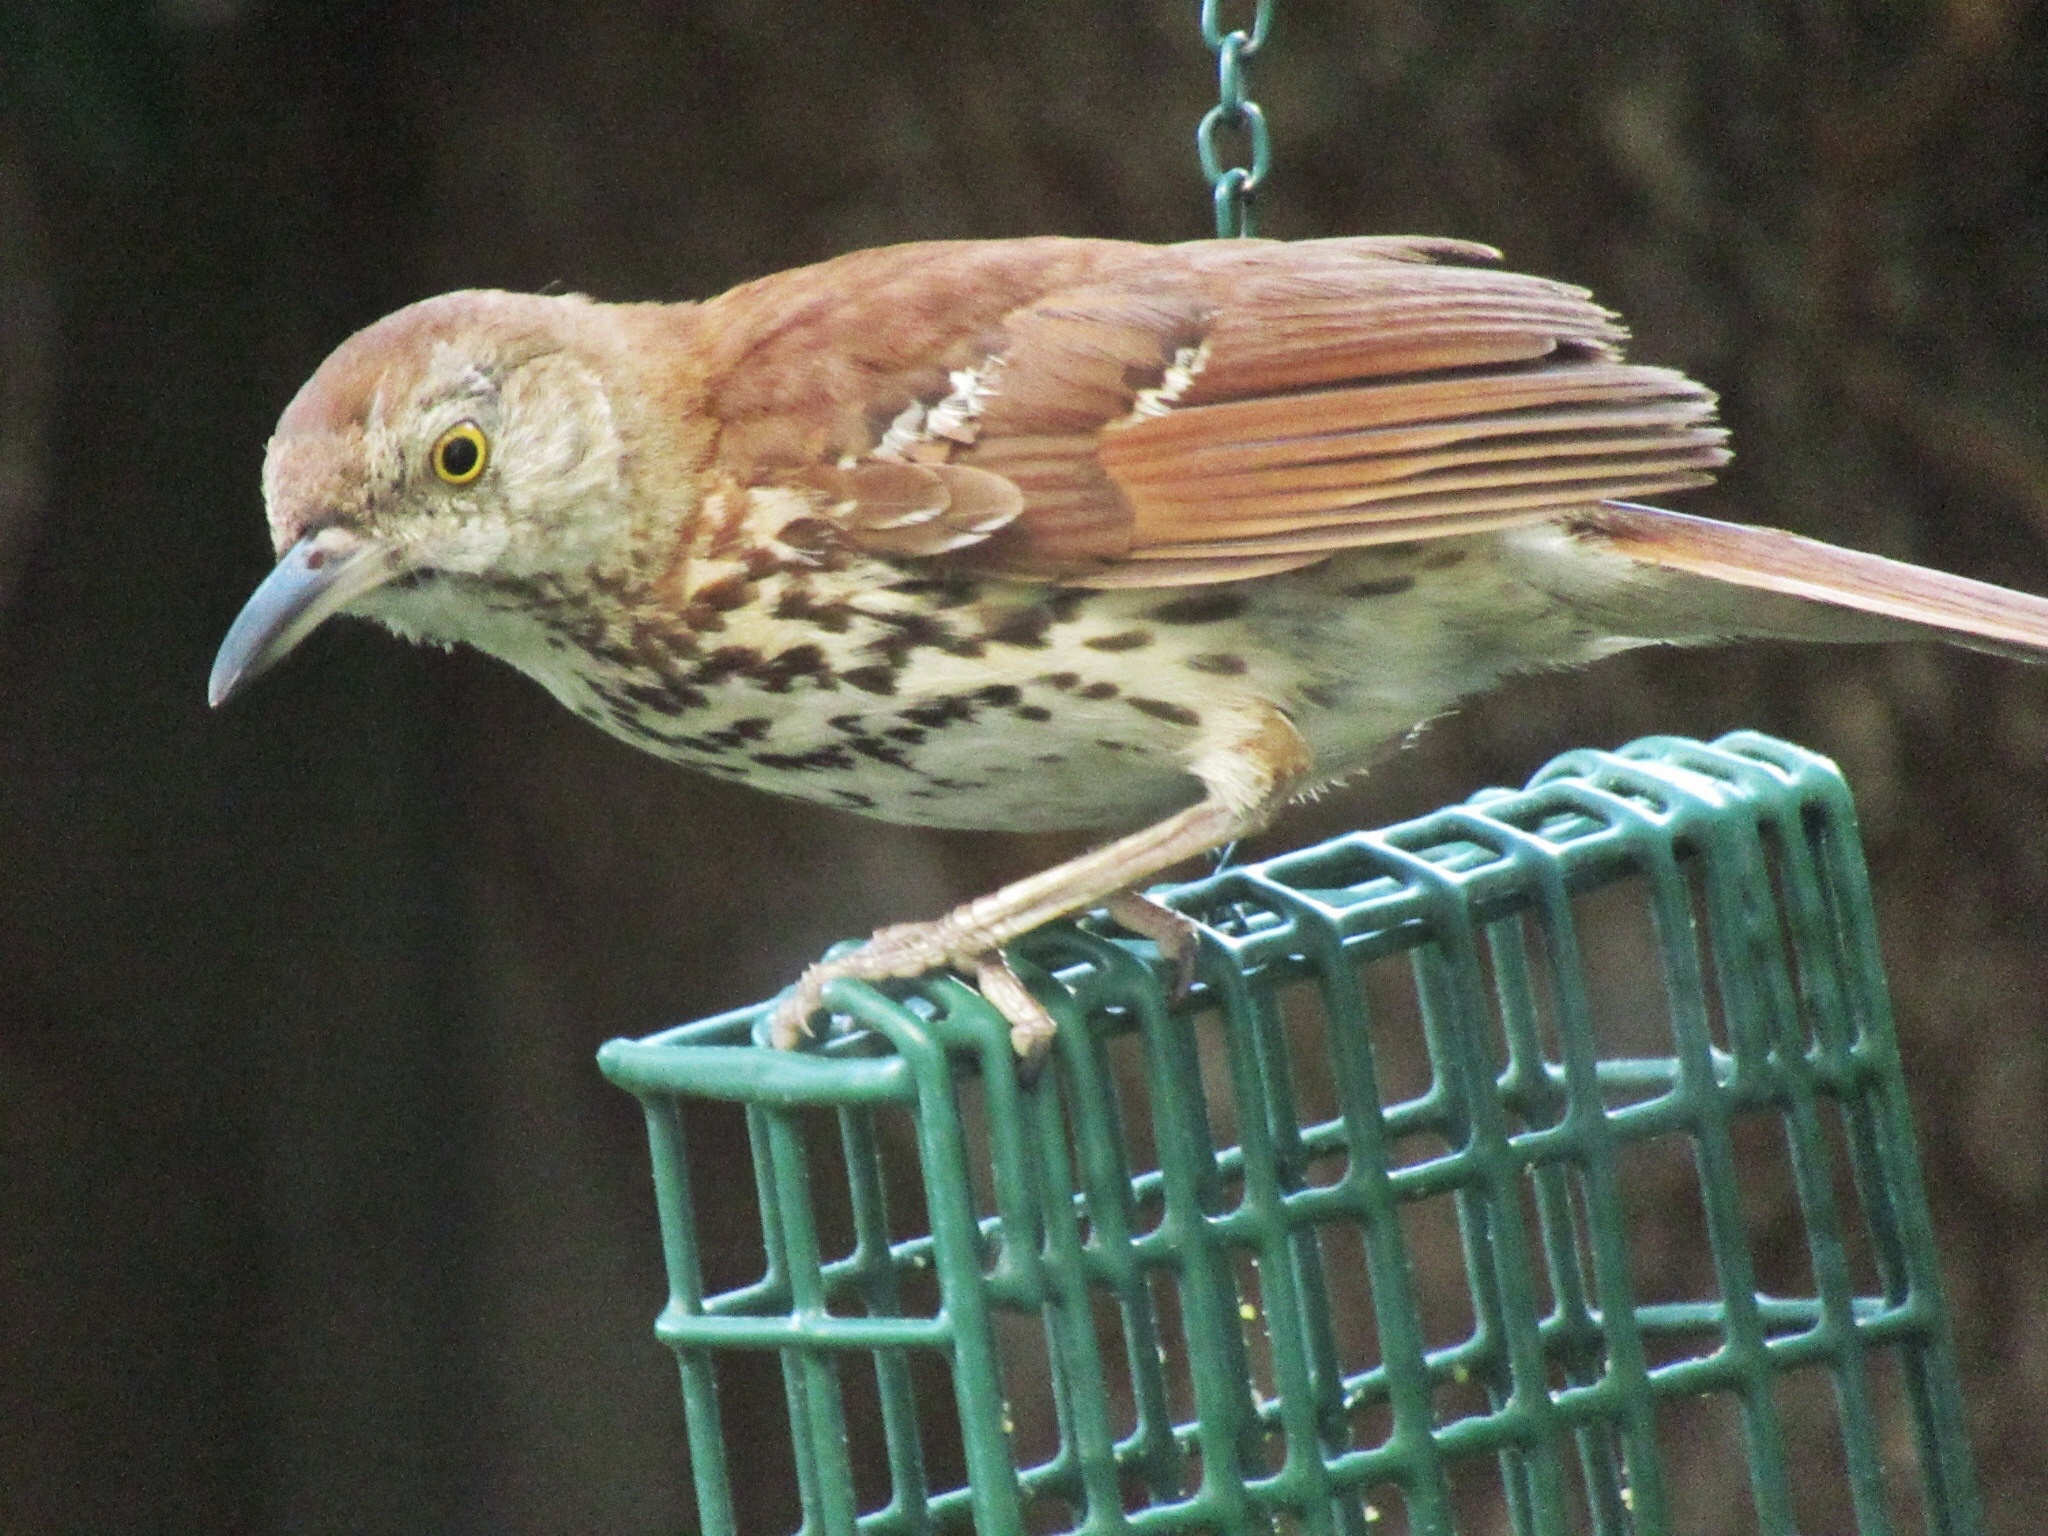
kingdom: Animalia
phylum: Chordata
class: Aves
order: Passeriformes
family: Mimidae
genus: Toxostoma
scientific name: Toxostoma rufum
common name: Brown thrasher
